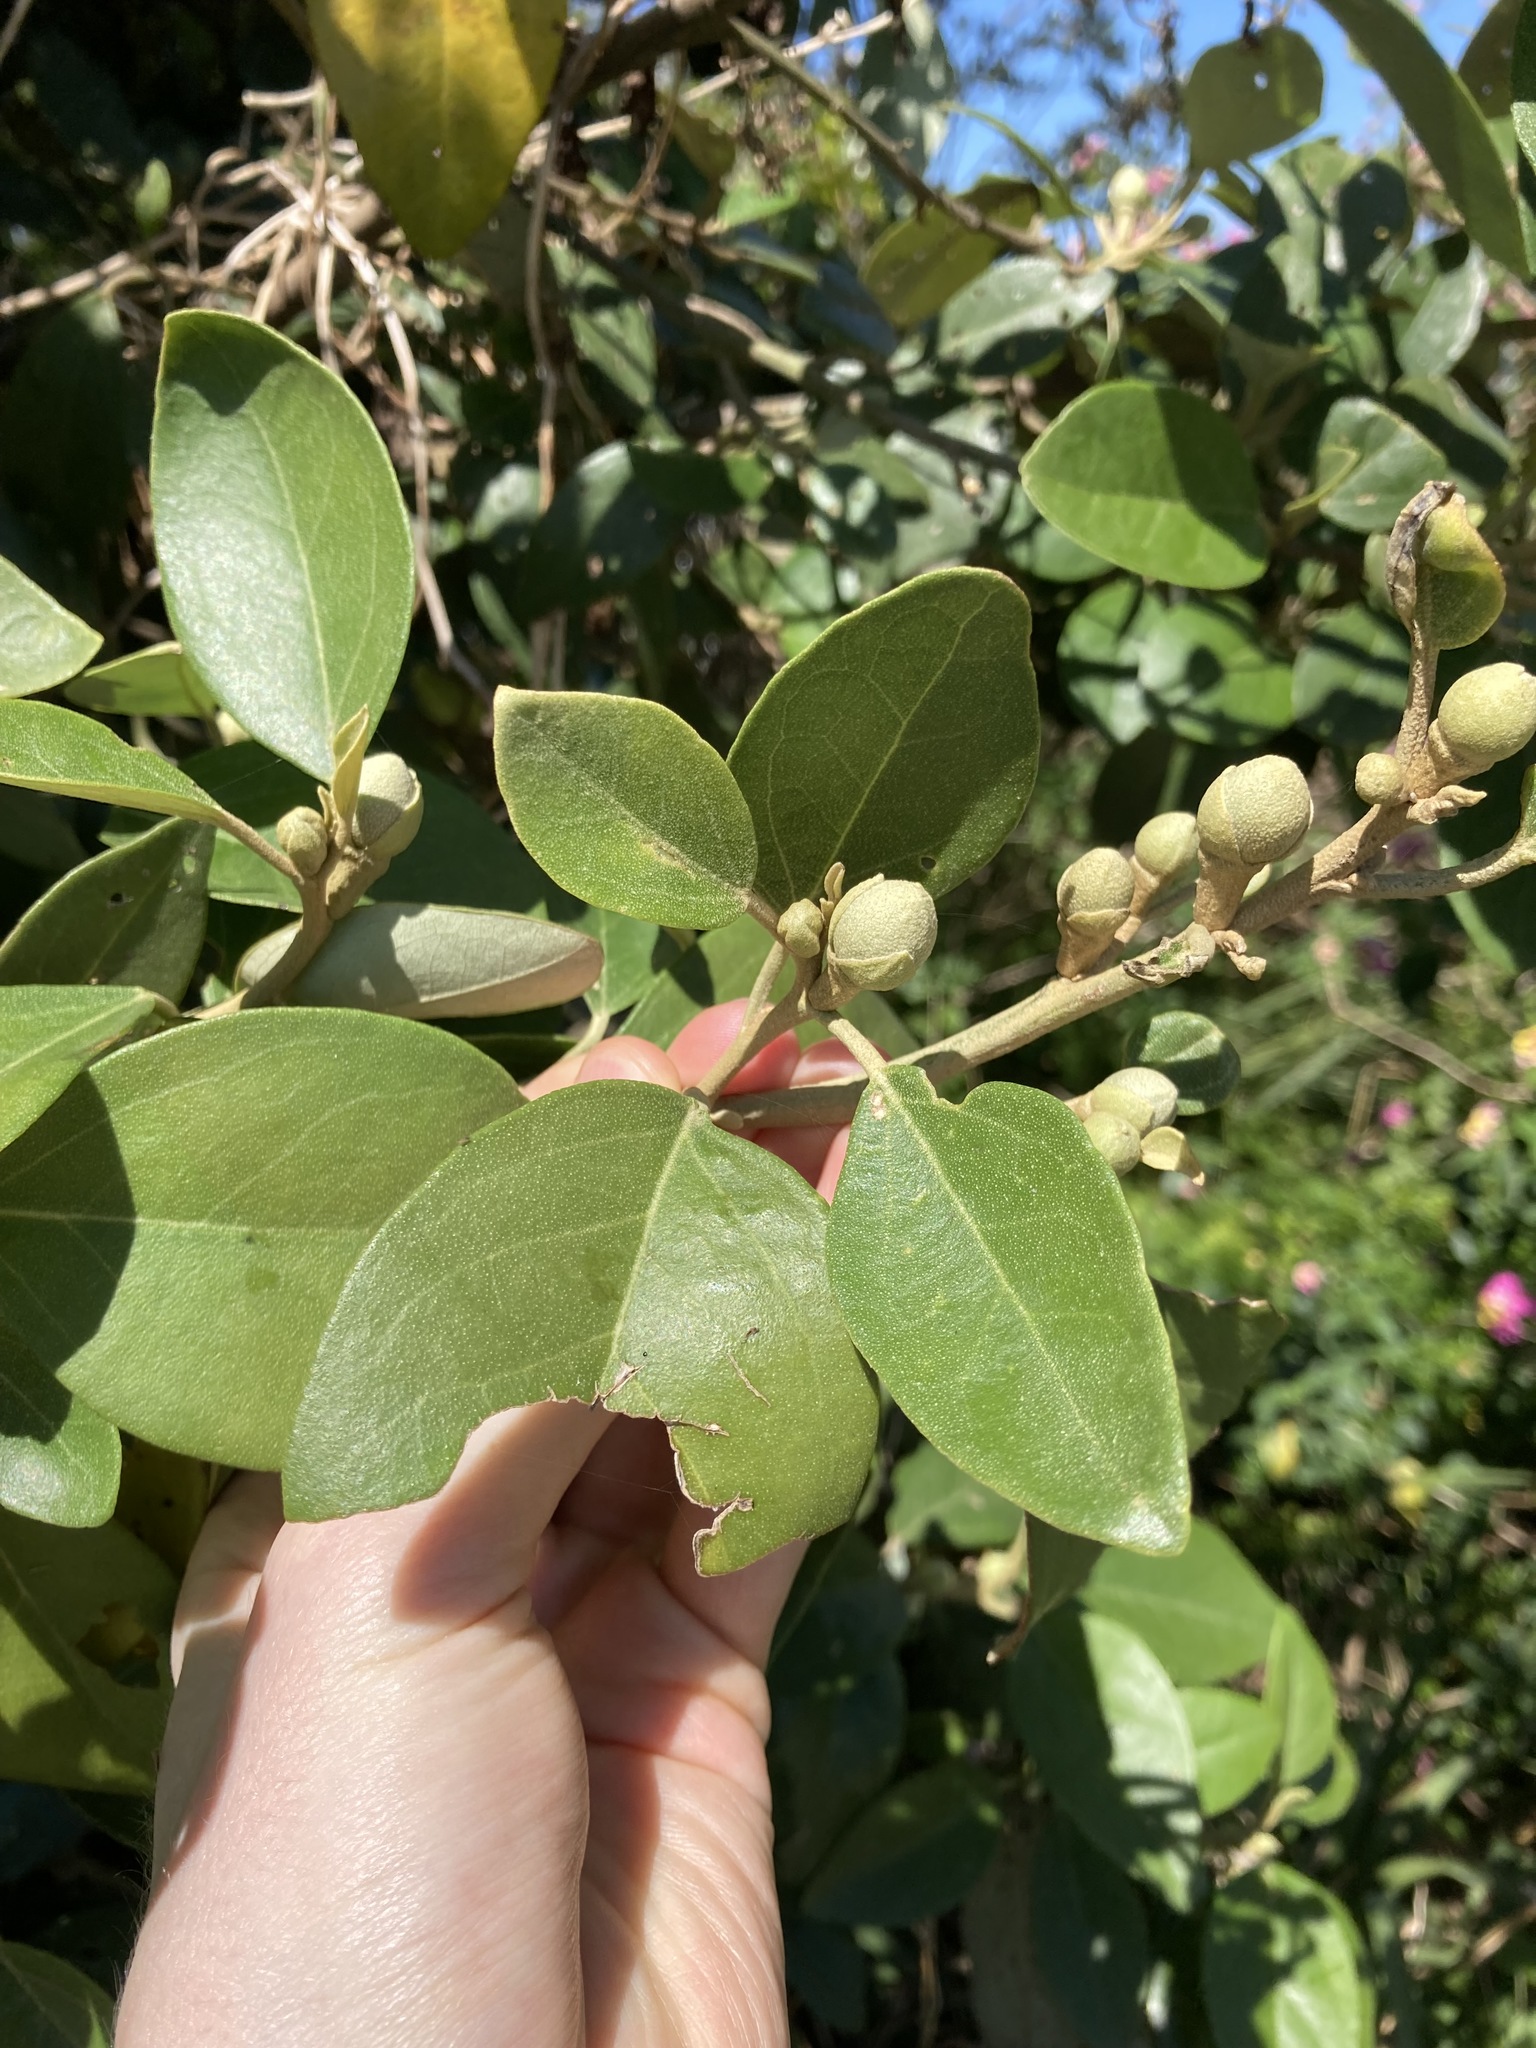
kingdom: Plantae
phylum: Tracheophyta
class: Magnoliopsida
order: Malvales
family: Malvaceae
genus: Lagunaria
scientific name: Lagunaria patersonia
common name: Cow itch tree
